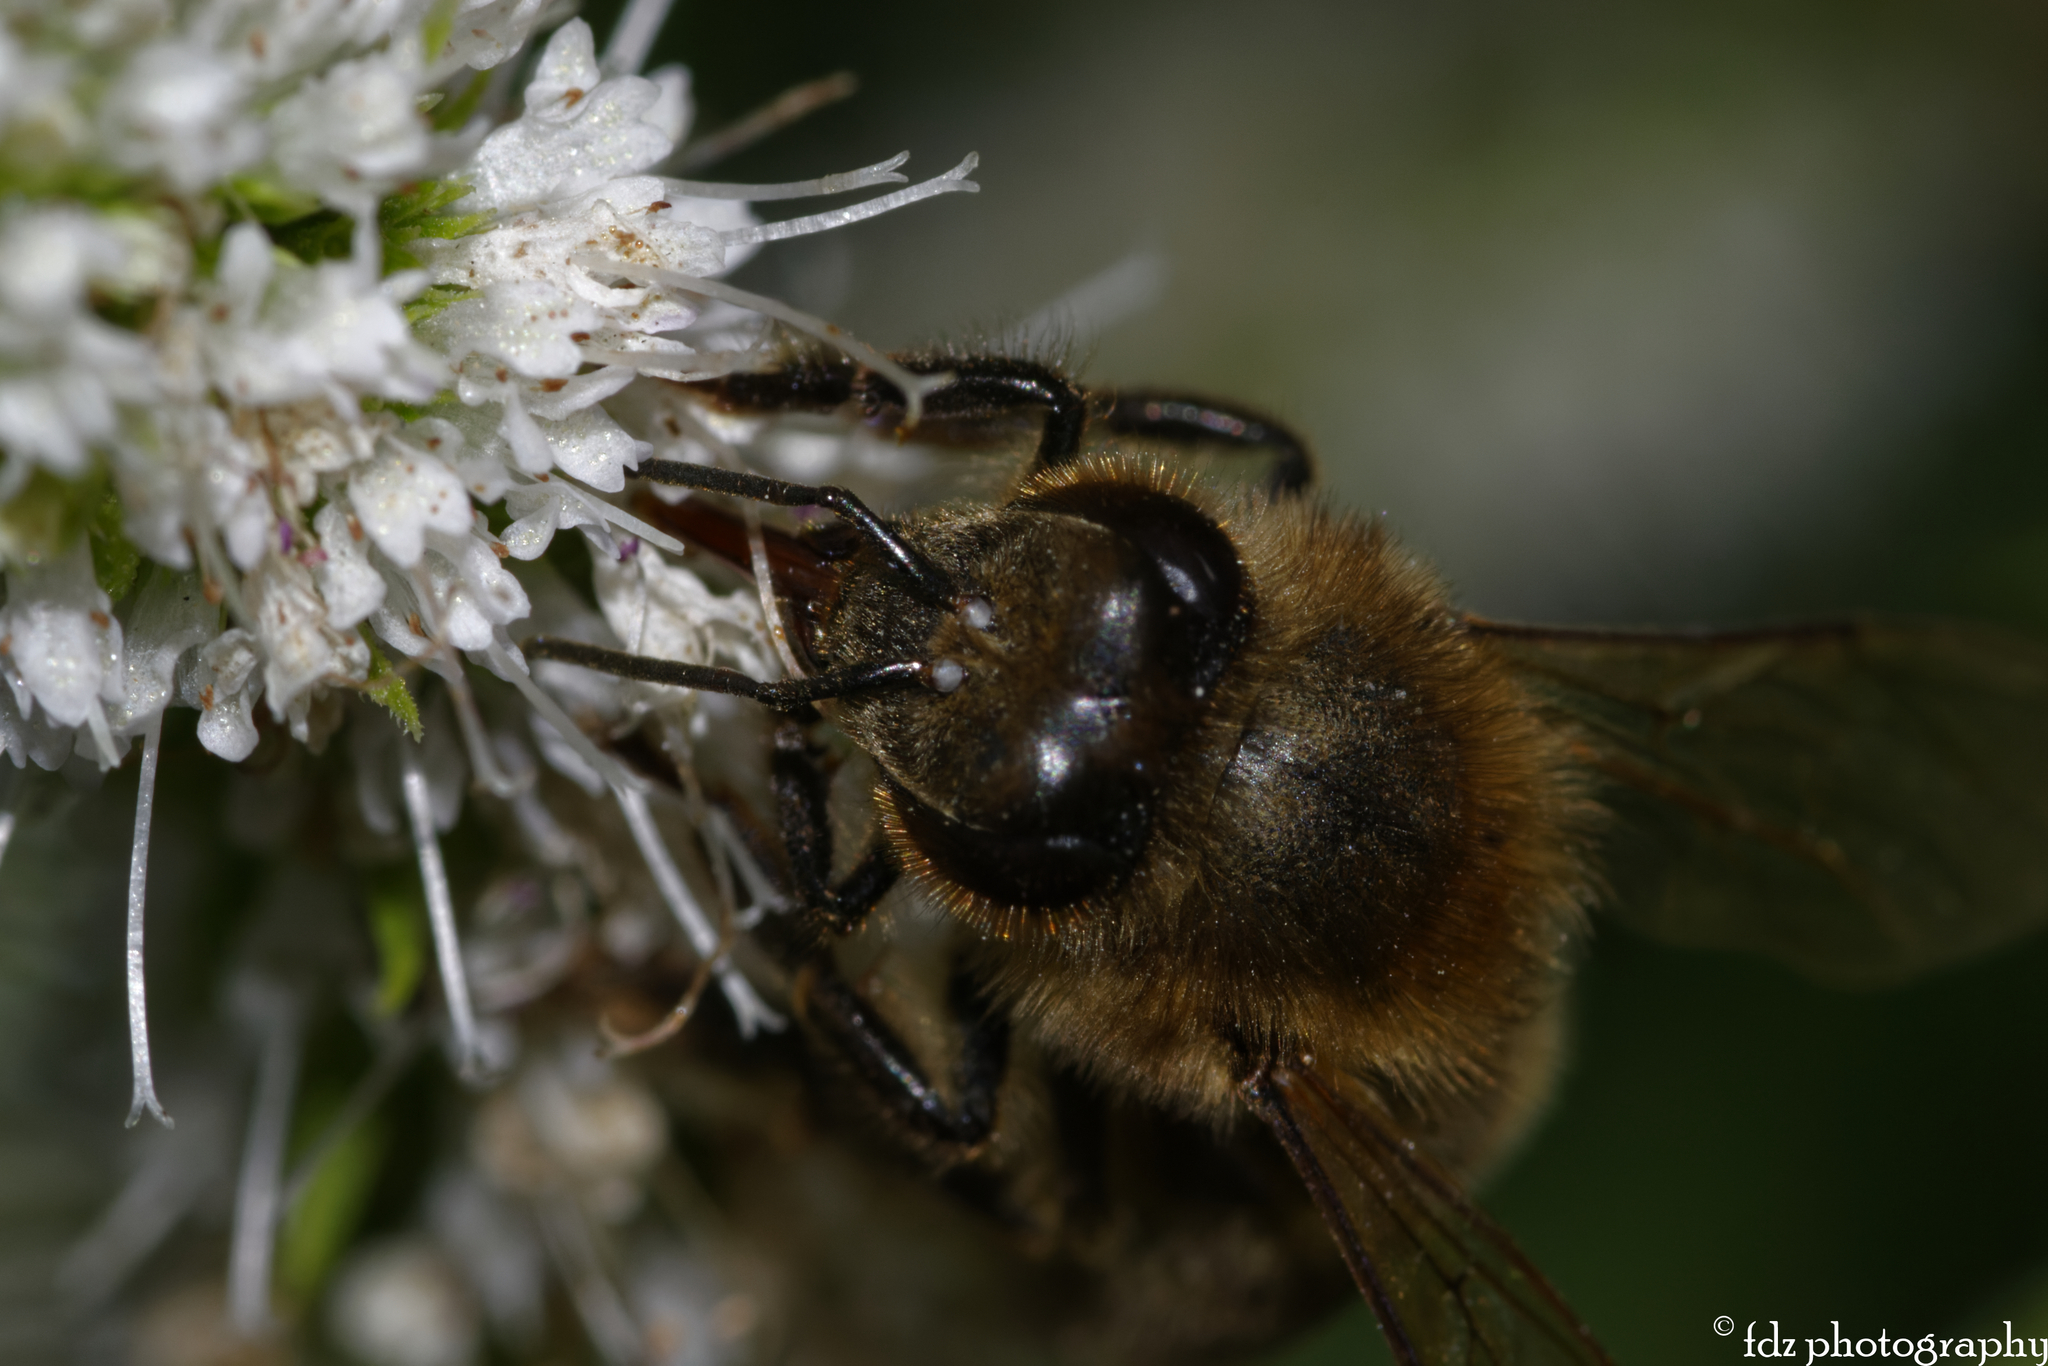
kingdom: Animalia
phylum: Arthropoda
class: Insecta
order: Hymenoptera
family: Apidae
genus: Apis
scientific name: Apis mellifera
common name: Honey bee
